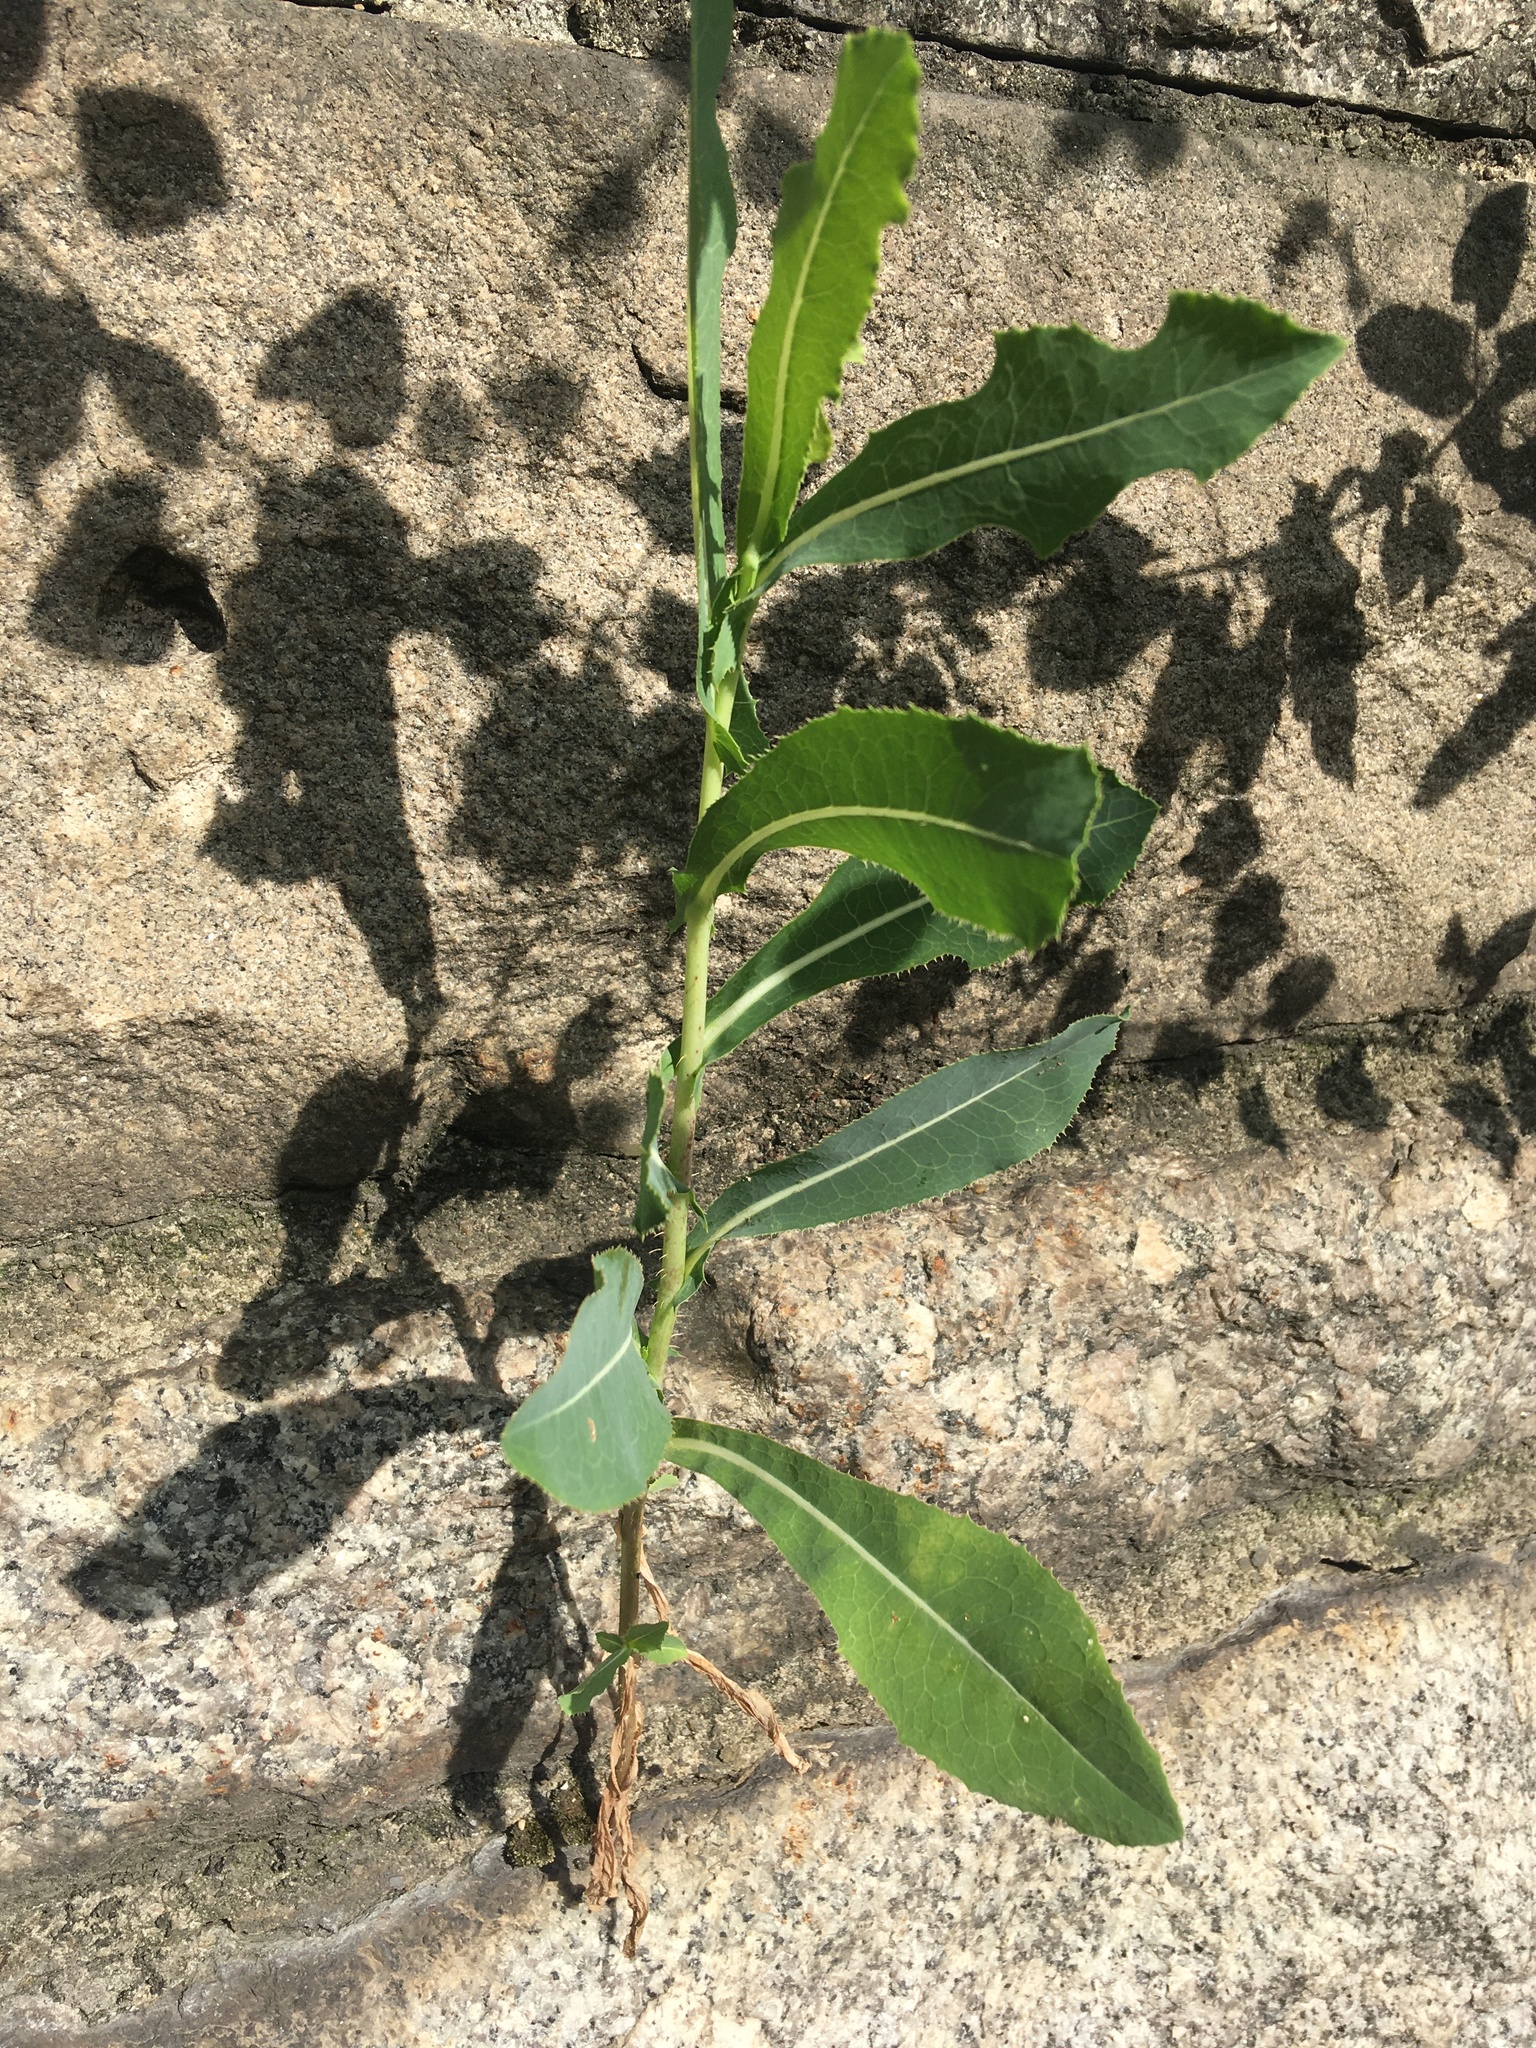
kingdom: Plantae
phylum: Tracheophyta
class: Magnoliopsida
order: Asterales
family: Asteraceae
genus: Lactuca
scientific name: Lactuca serriola
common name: Prickly lettuce
